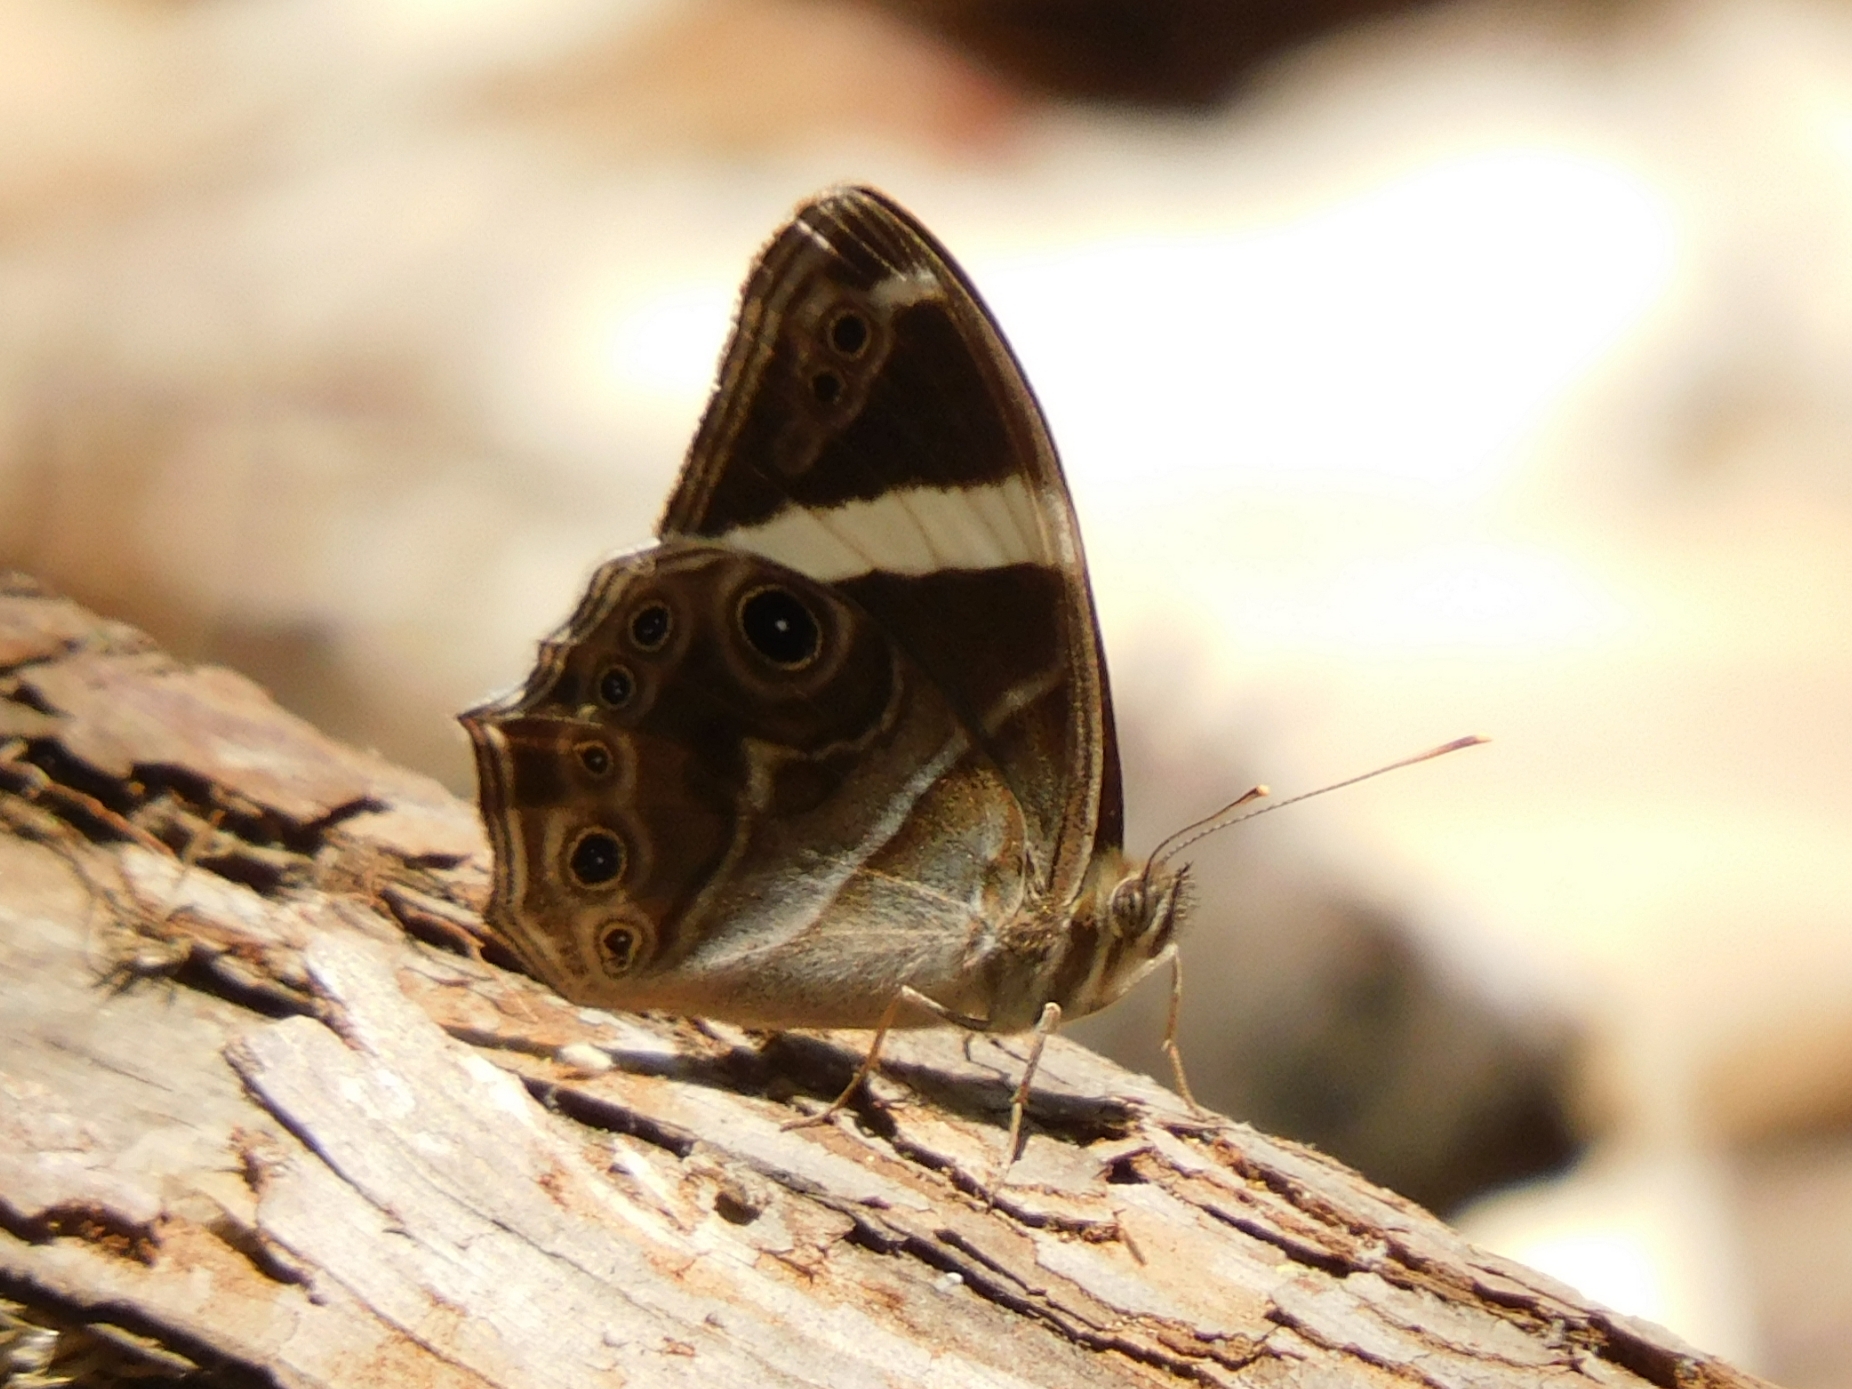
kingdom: Animalia
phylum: Arthropoda
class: Insecta
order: Lepidoptera
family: Nymphalidae
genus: Lethe
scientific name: Lethe confusa
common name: Banded treebrown
